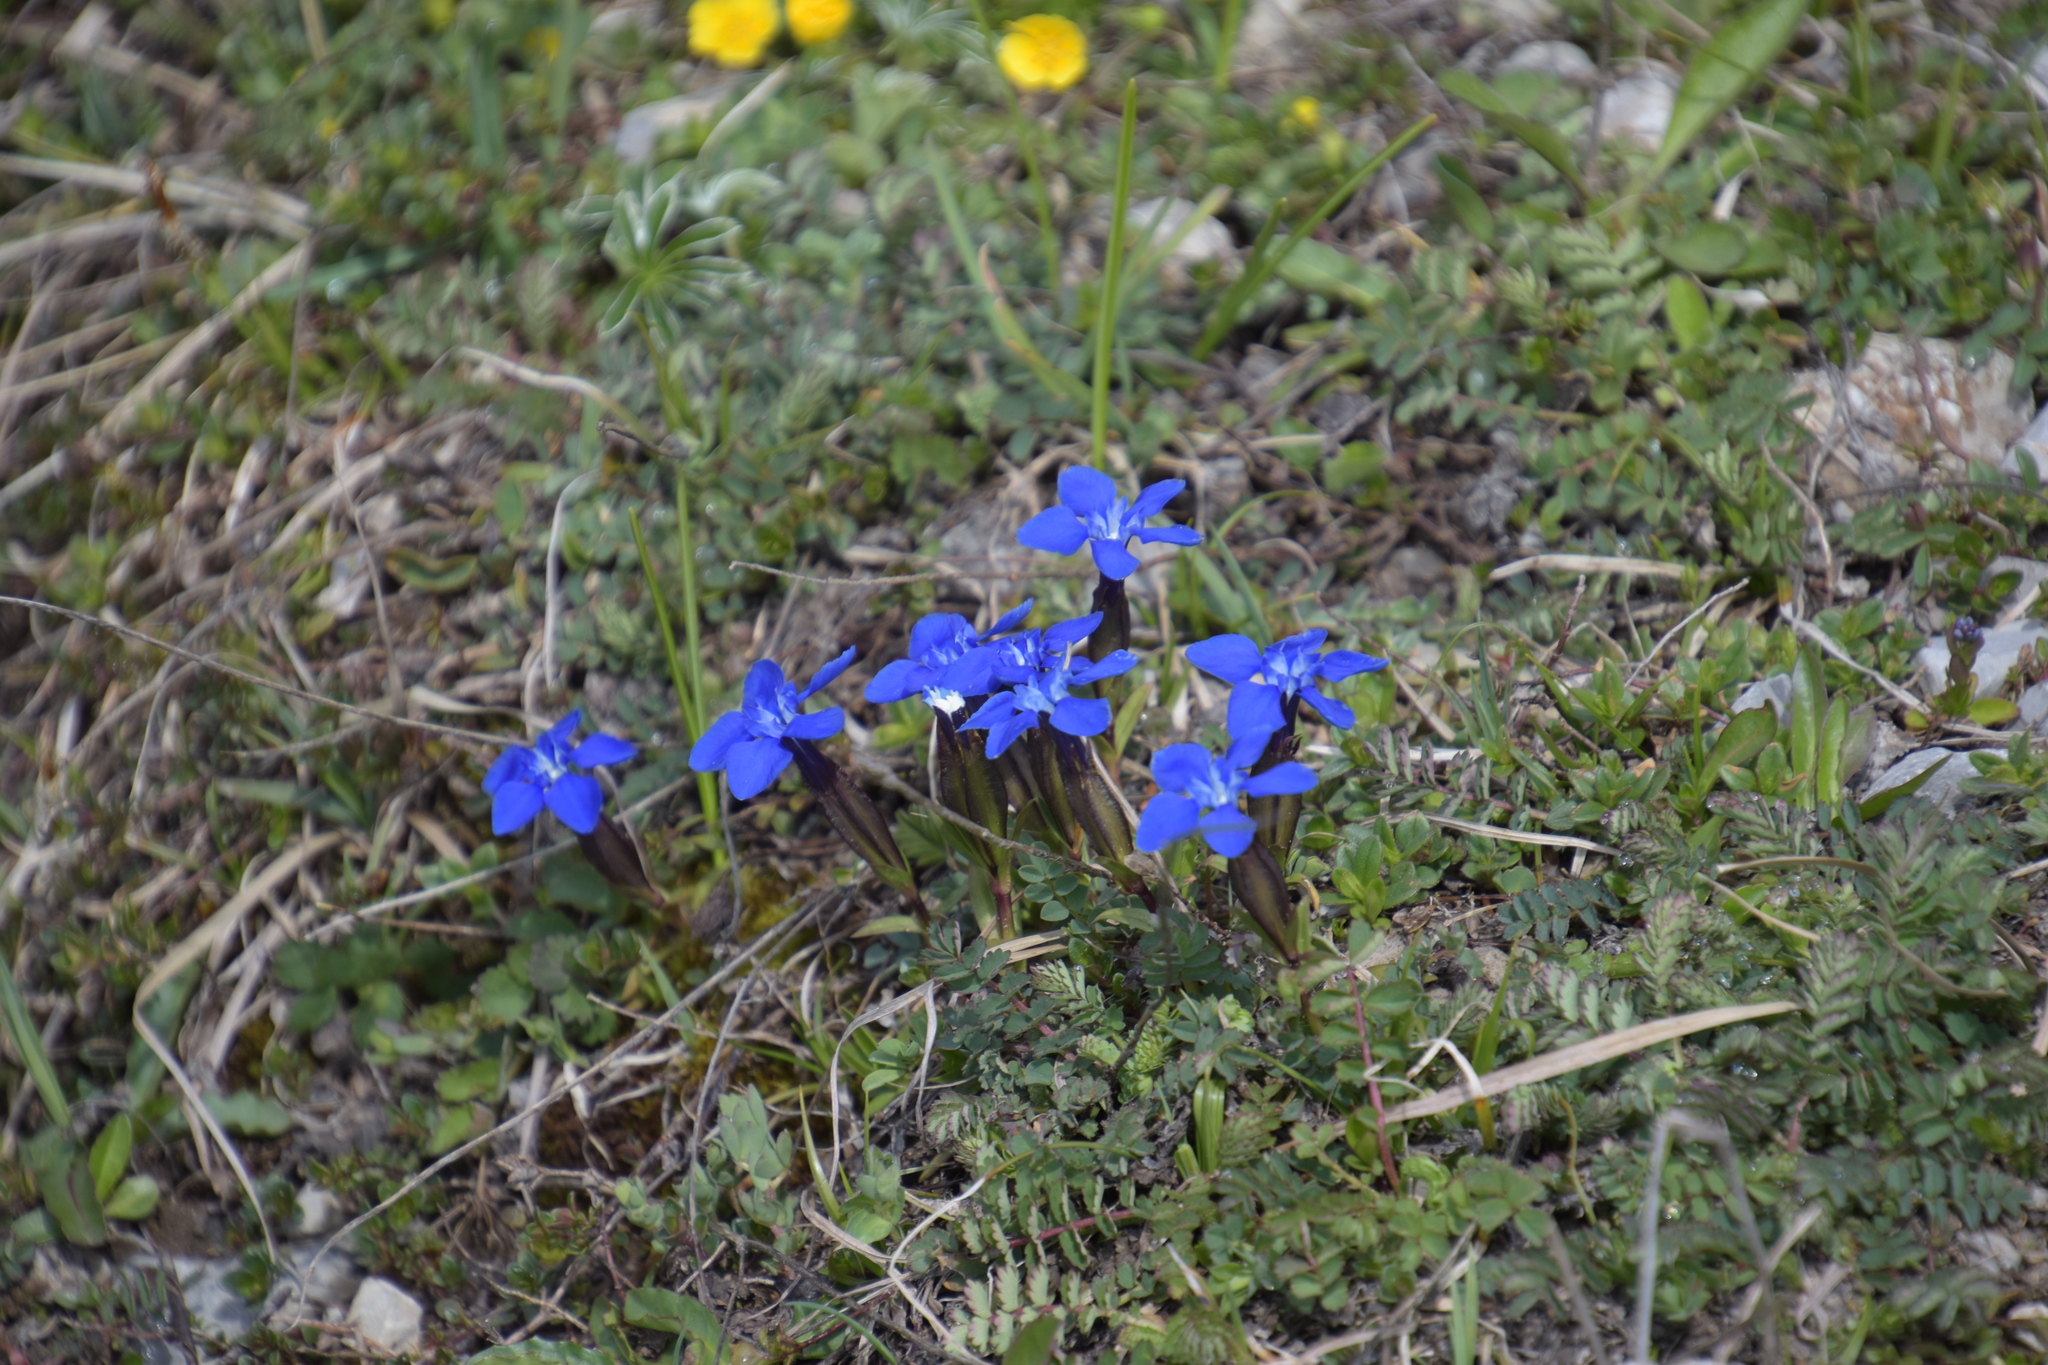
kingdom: Plantae
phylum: Tracheophyta
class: Magnoliopsida
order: Gentianales
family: Gentianaceae
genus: Gentiana
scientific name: Gentiana verna
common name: Spring gentian
